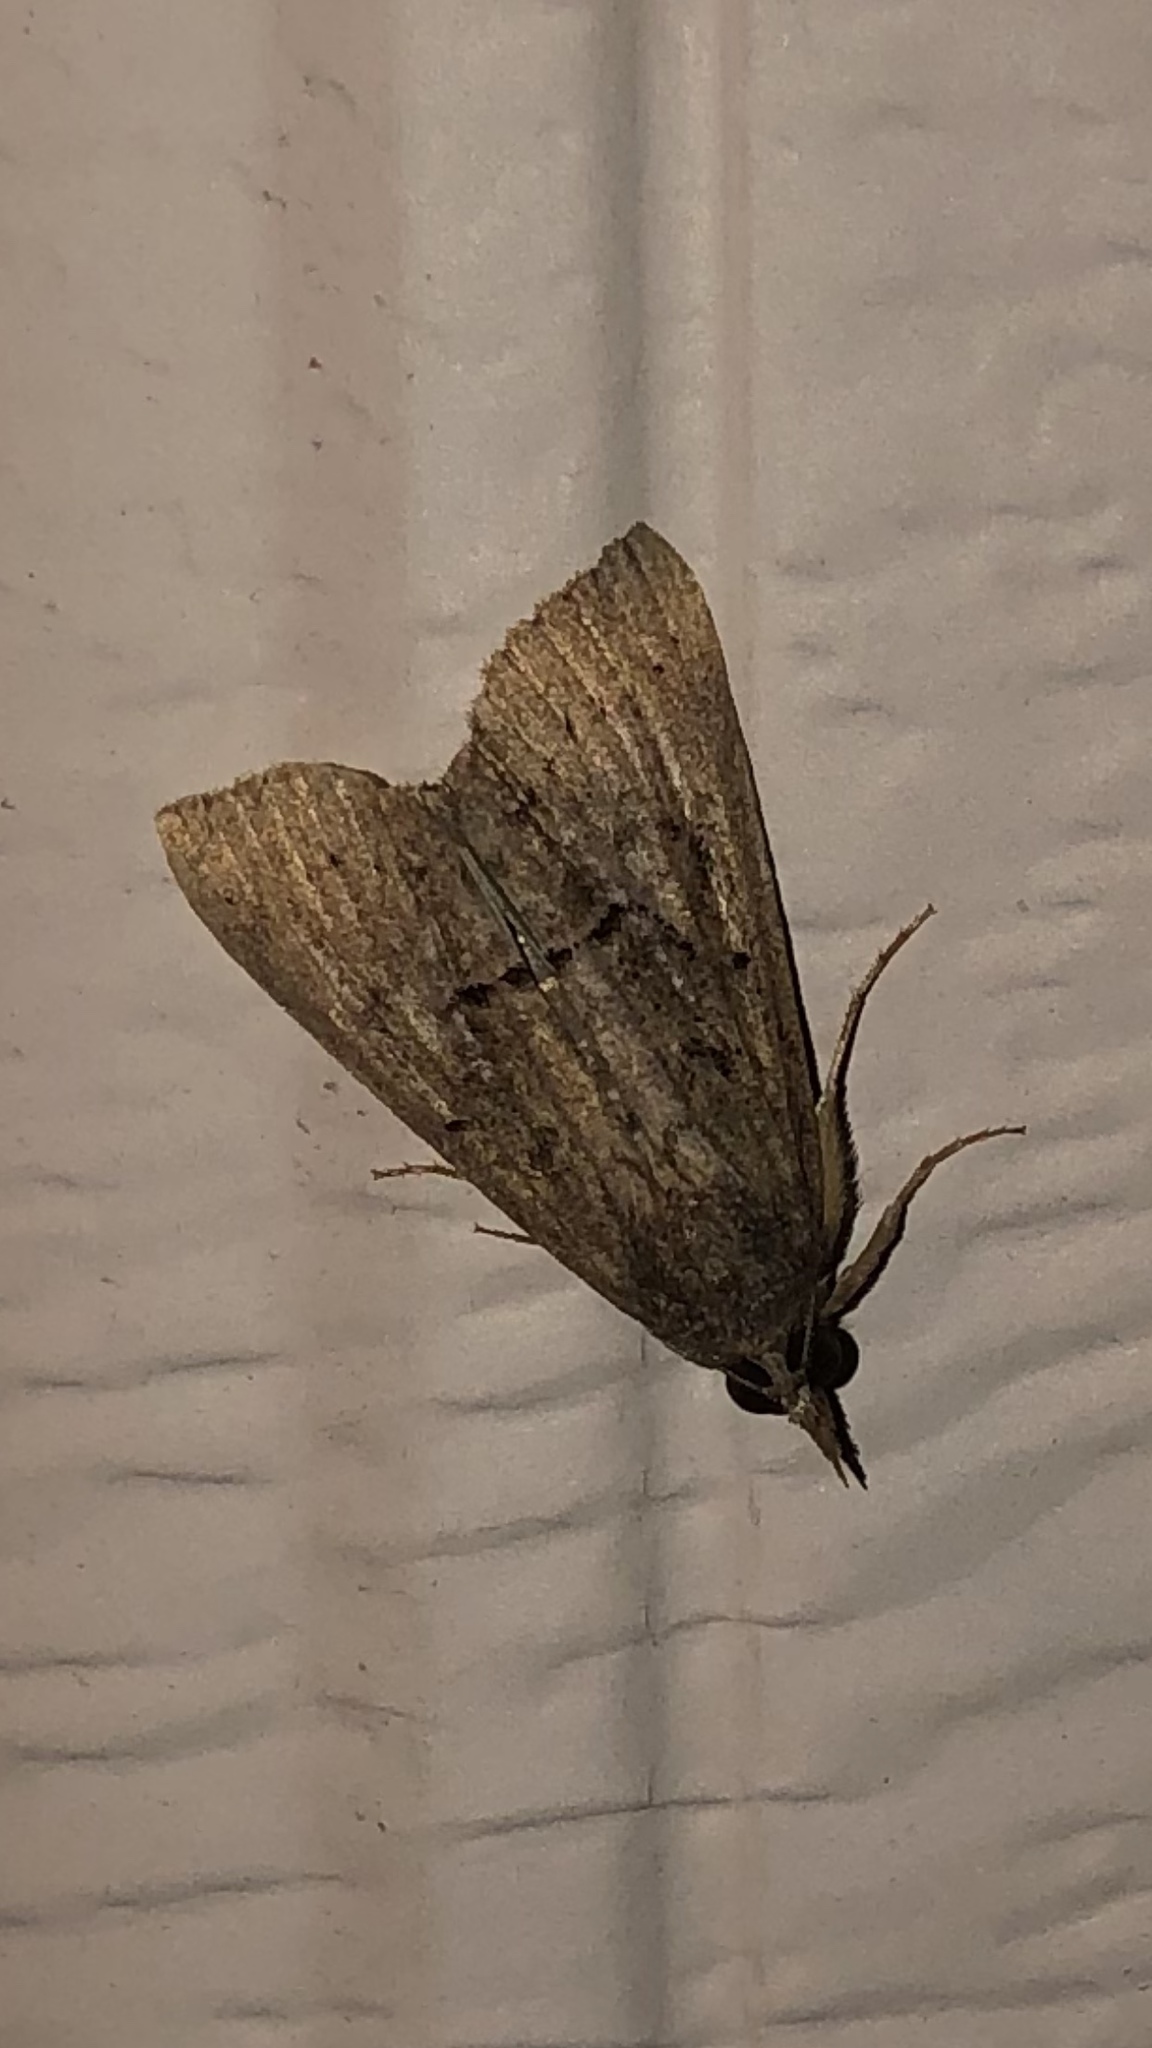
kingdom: Animalia
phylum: Arthropoda
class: Insecta
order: Lepidoptera
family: Erebidae
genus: Hypena
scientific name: Hypena scabra
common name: Green cloverworm
